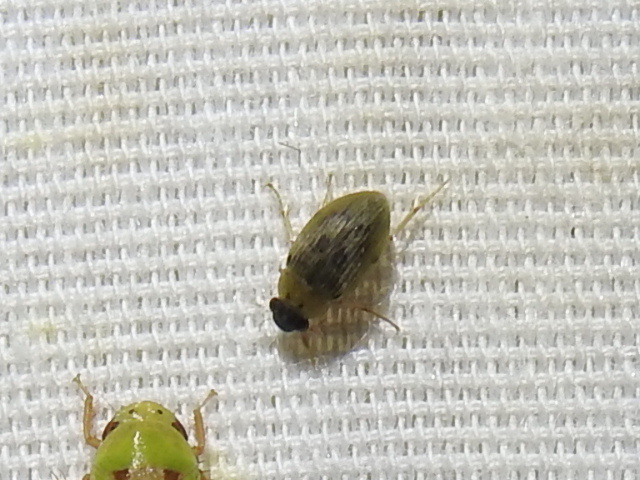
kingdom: Animalia
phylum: Arthropoda
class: Insecta
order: Coleoptera
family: Hydrophilidae
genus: Berosus
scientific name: Berosus
